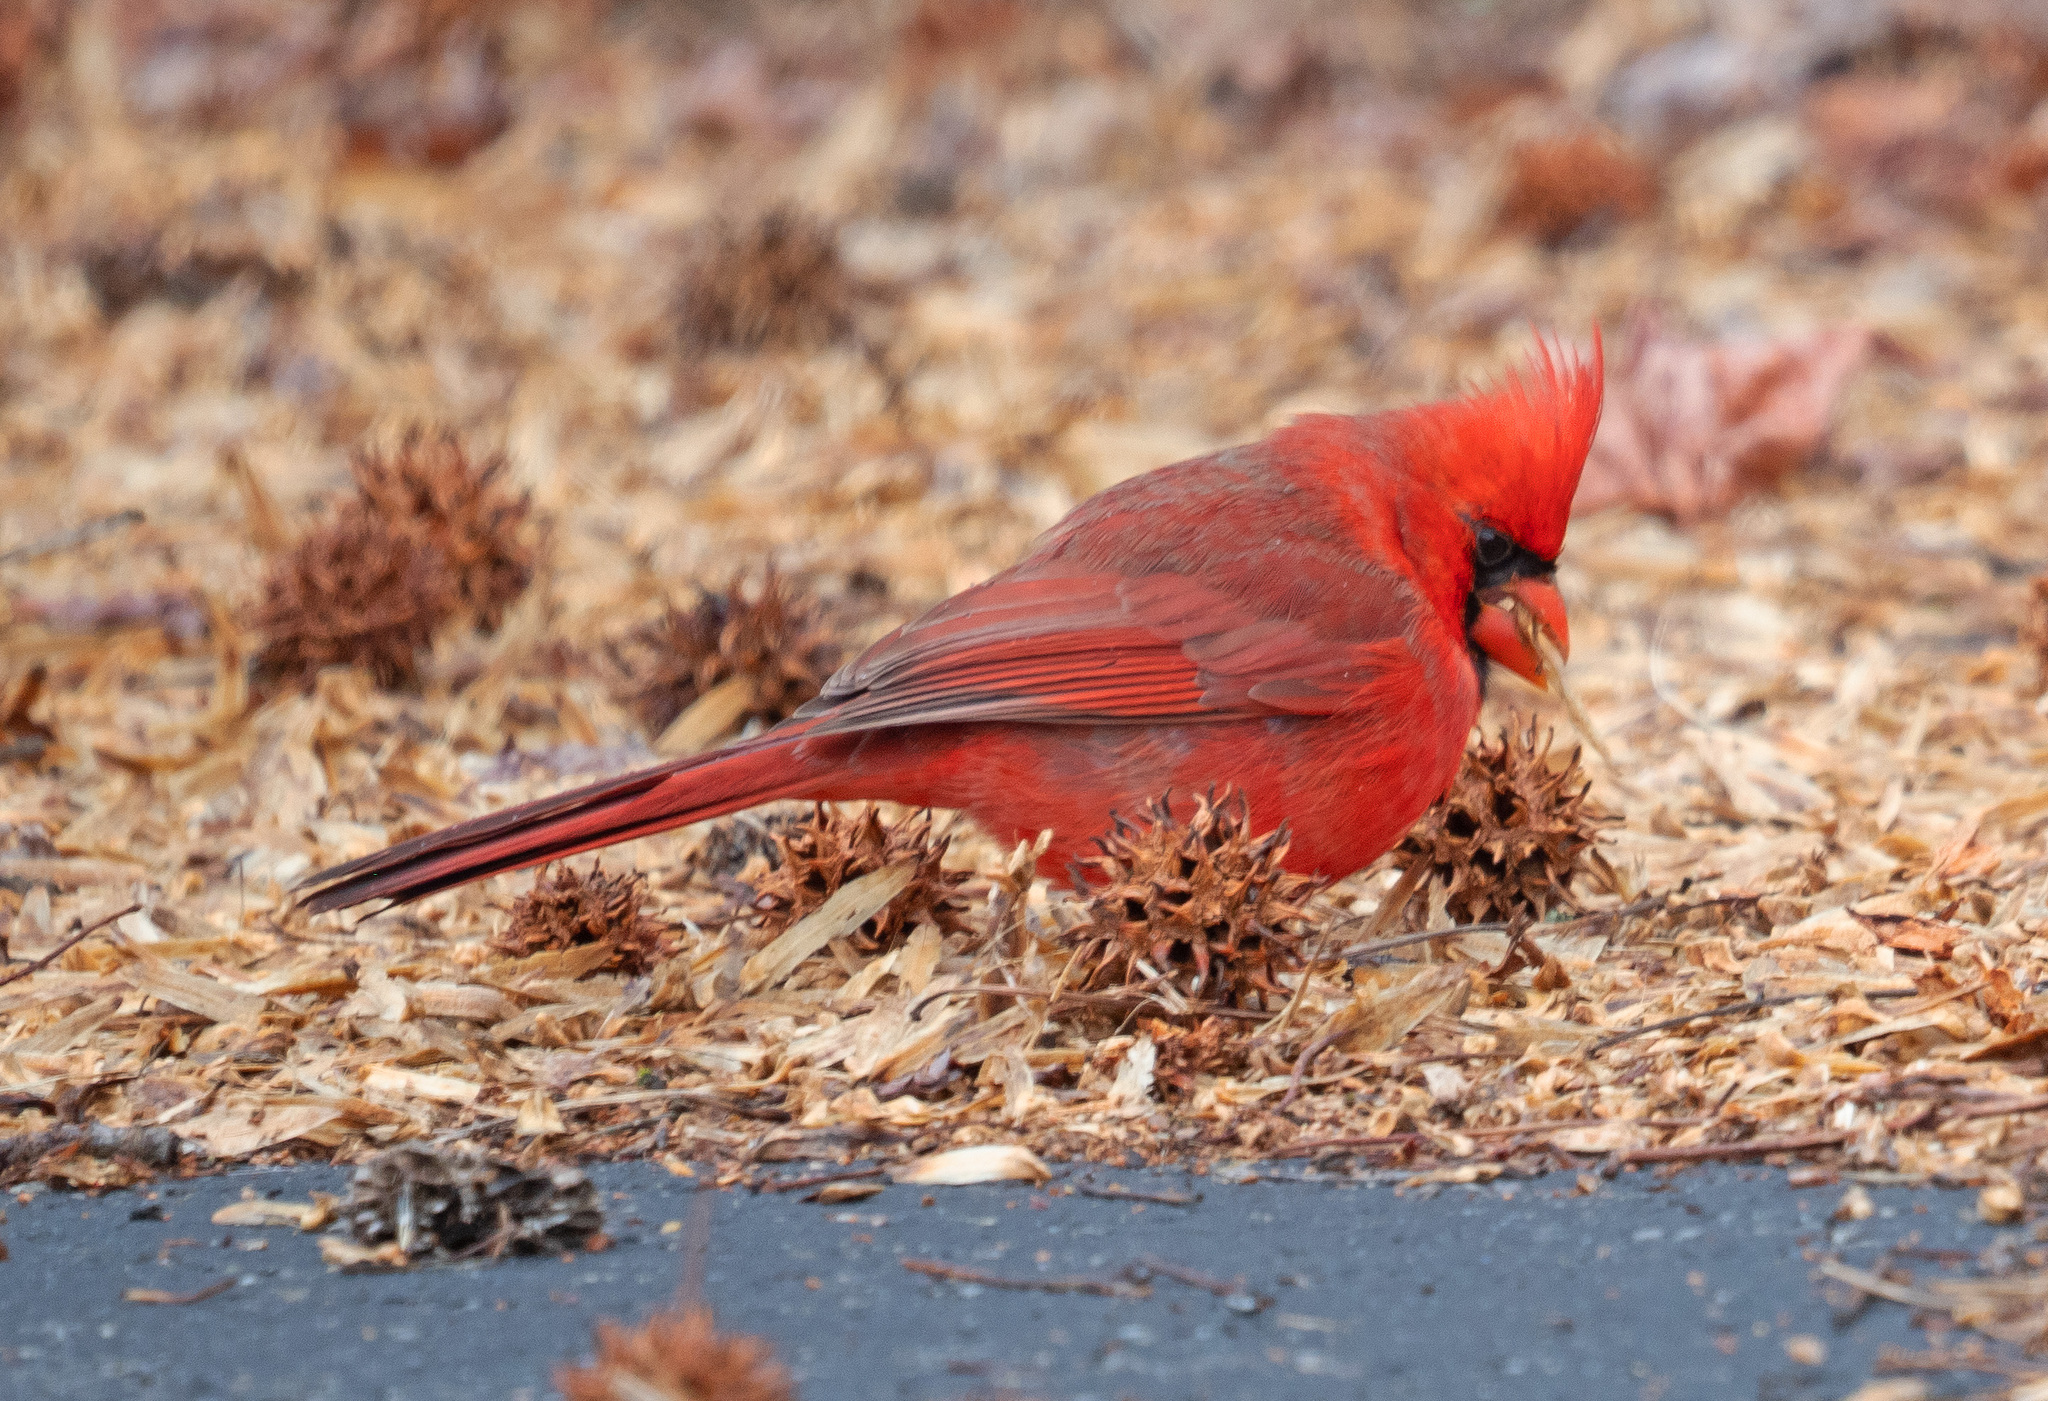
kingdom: Animalia
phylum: Chordata
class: Aves
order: Passeriformes
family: Cardinalidae
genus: Cardinalis
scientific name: Cardinalis cardinalis
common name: Northern cardinal
